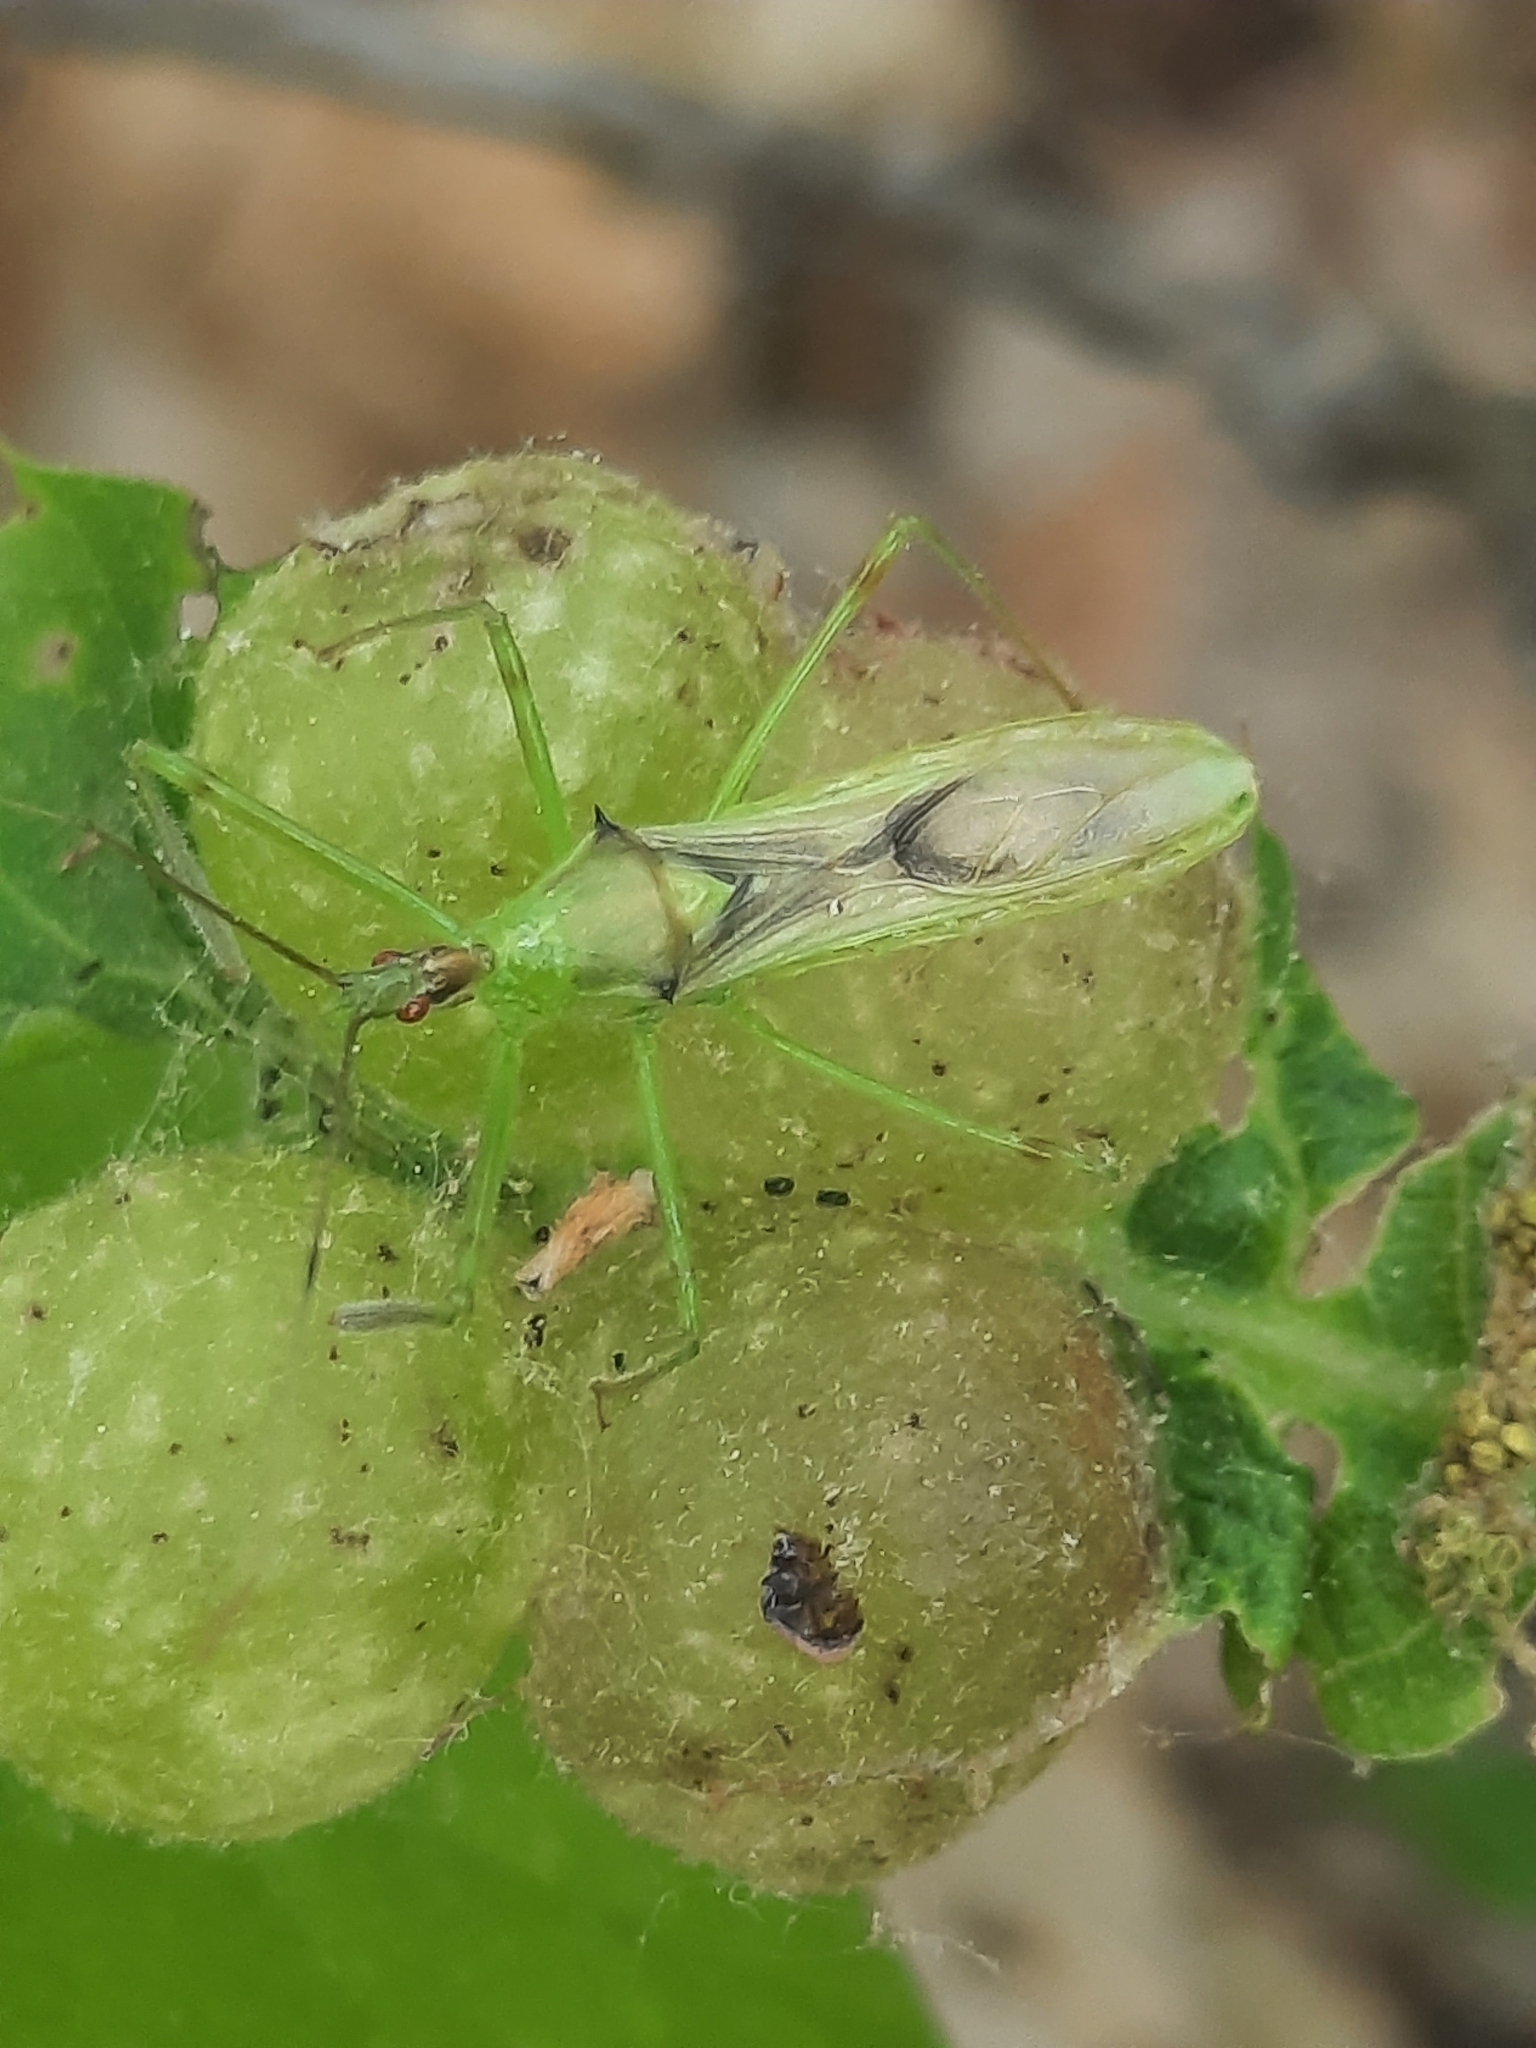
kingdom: Animalia
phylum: Arthropoda
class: Insecta
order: Hemiptera
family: Reduviidae
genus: Zelus
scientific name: Zelus luridus
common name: Pale green assassin bug
